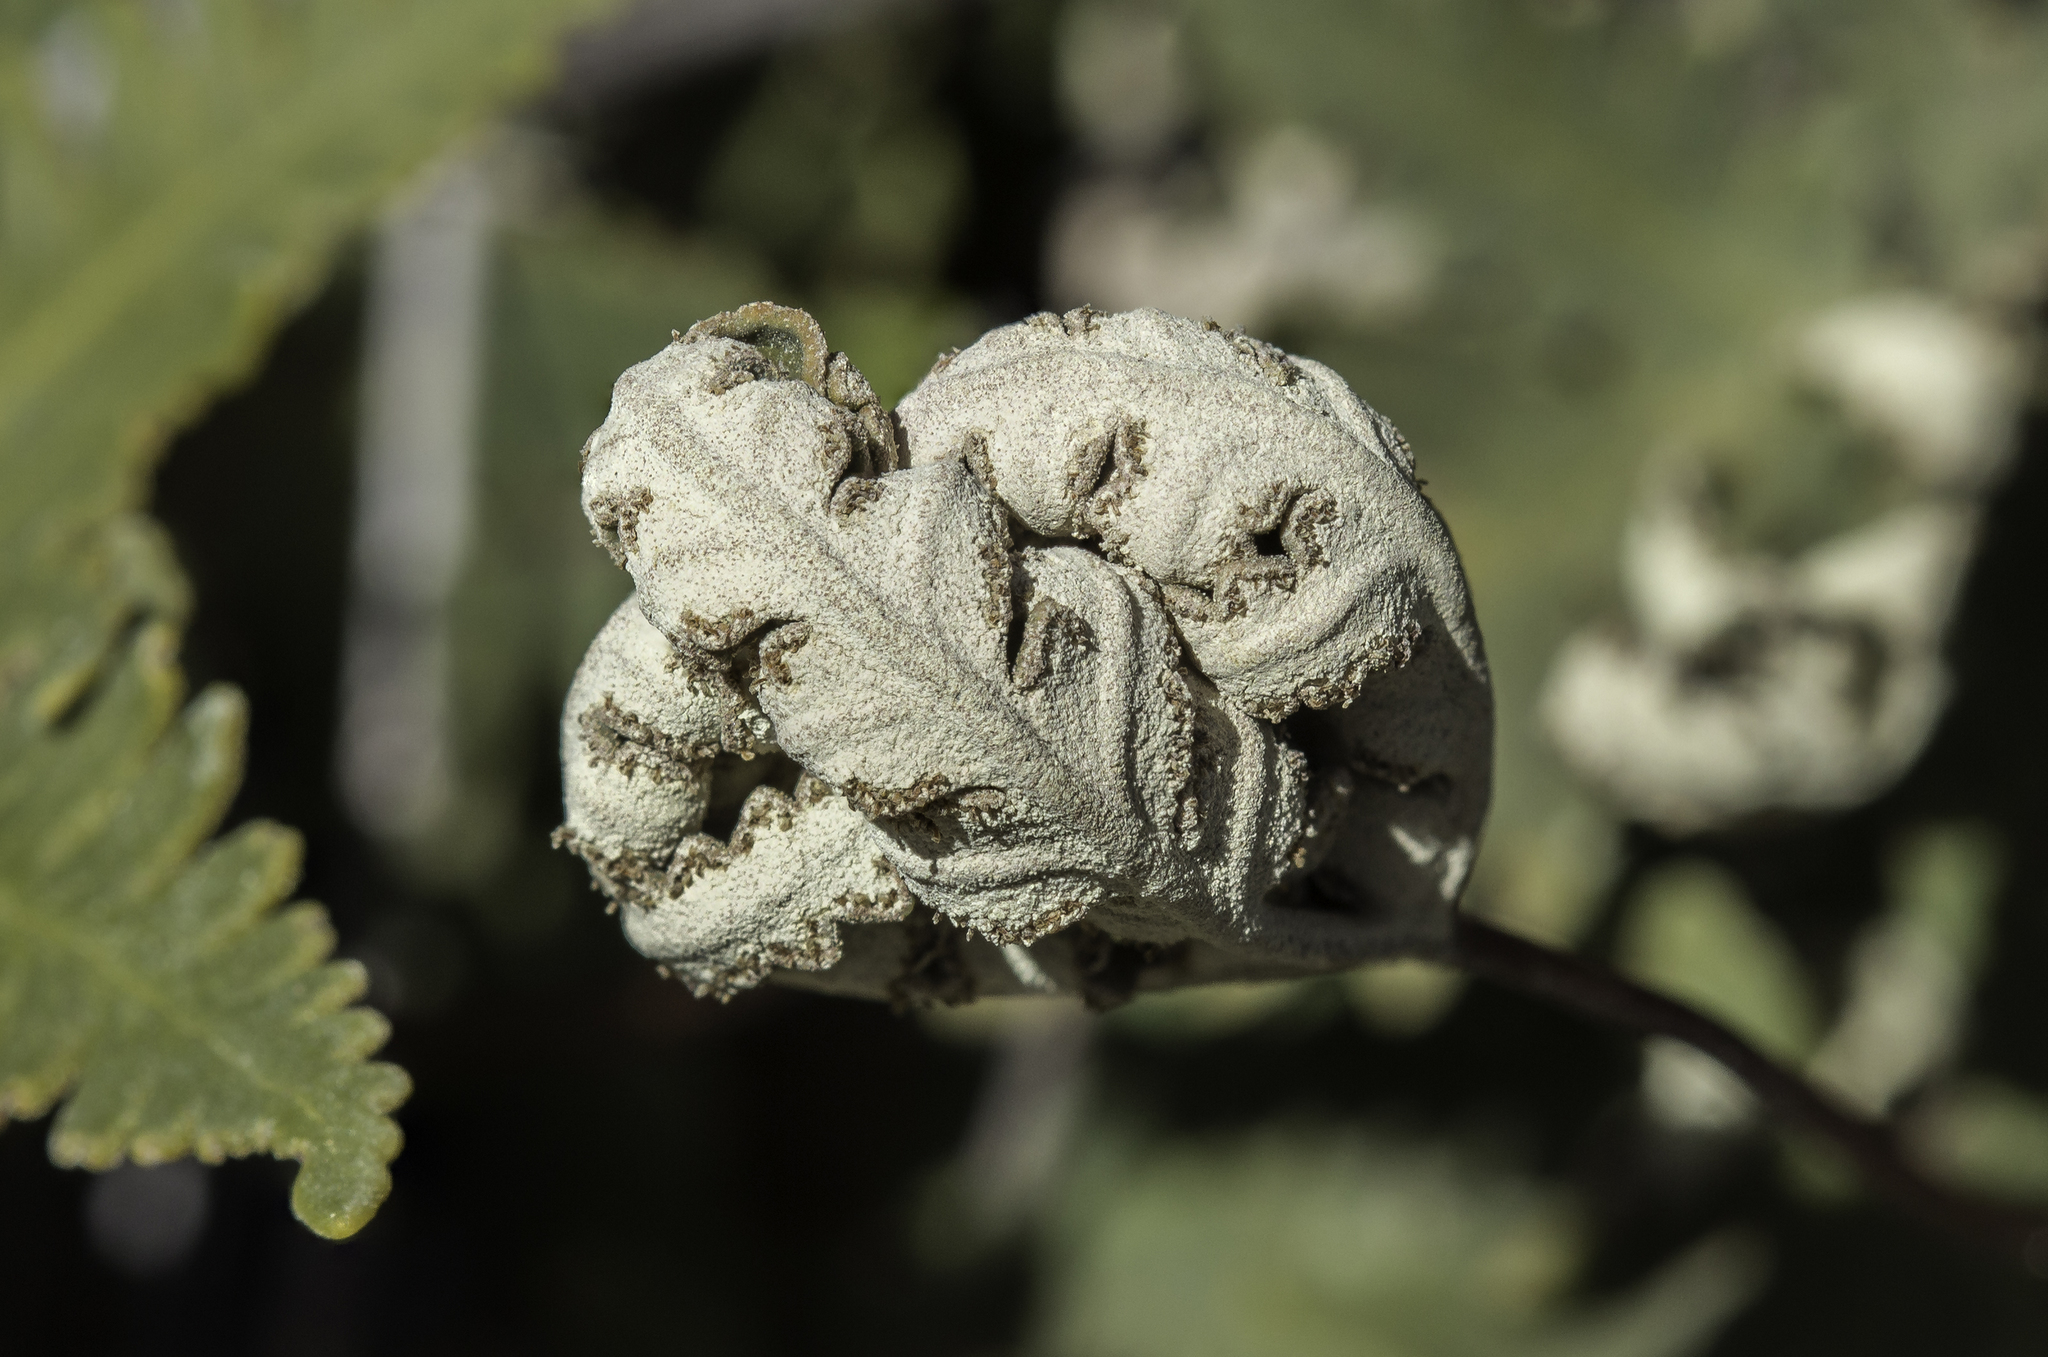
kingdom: Plantae
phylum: Tracheophyta
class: Polypodiopsida
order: Polypodiales
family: Pteridaceae
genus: Notholaena
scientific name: Notholaena standleyi
